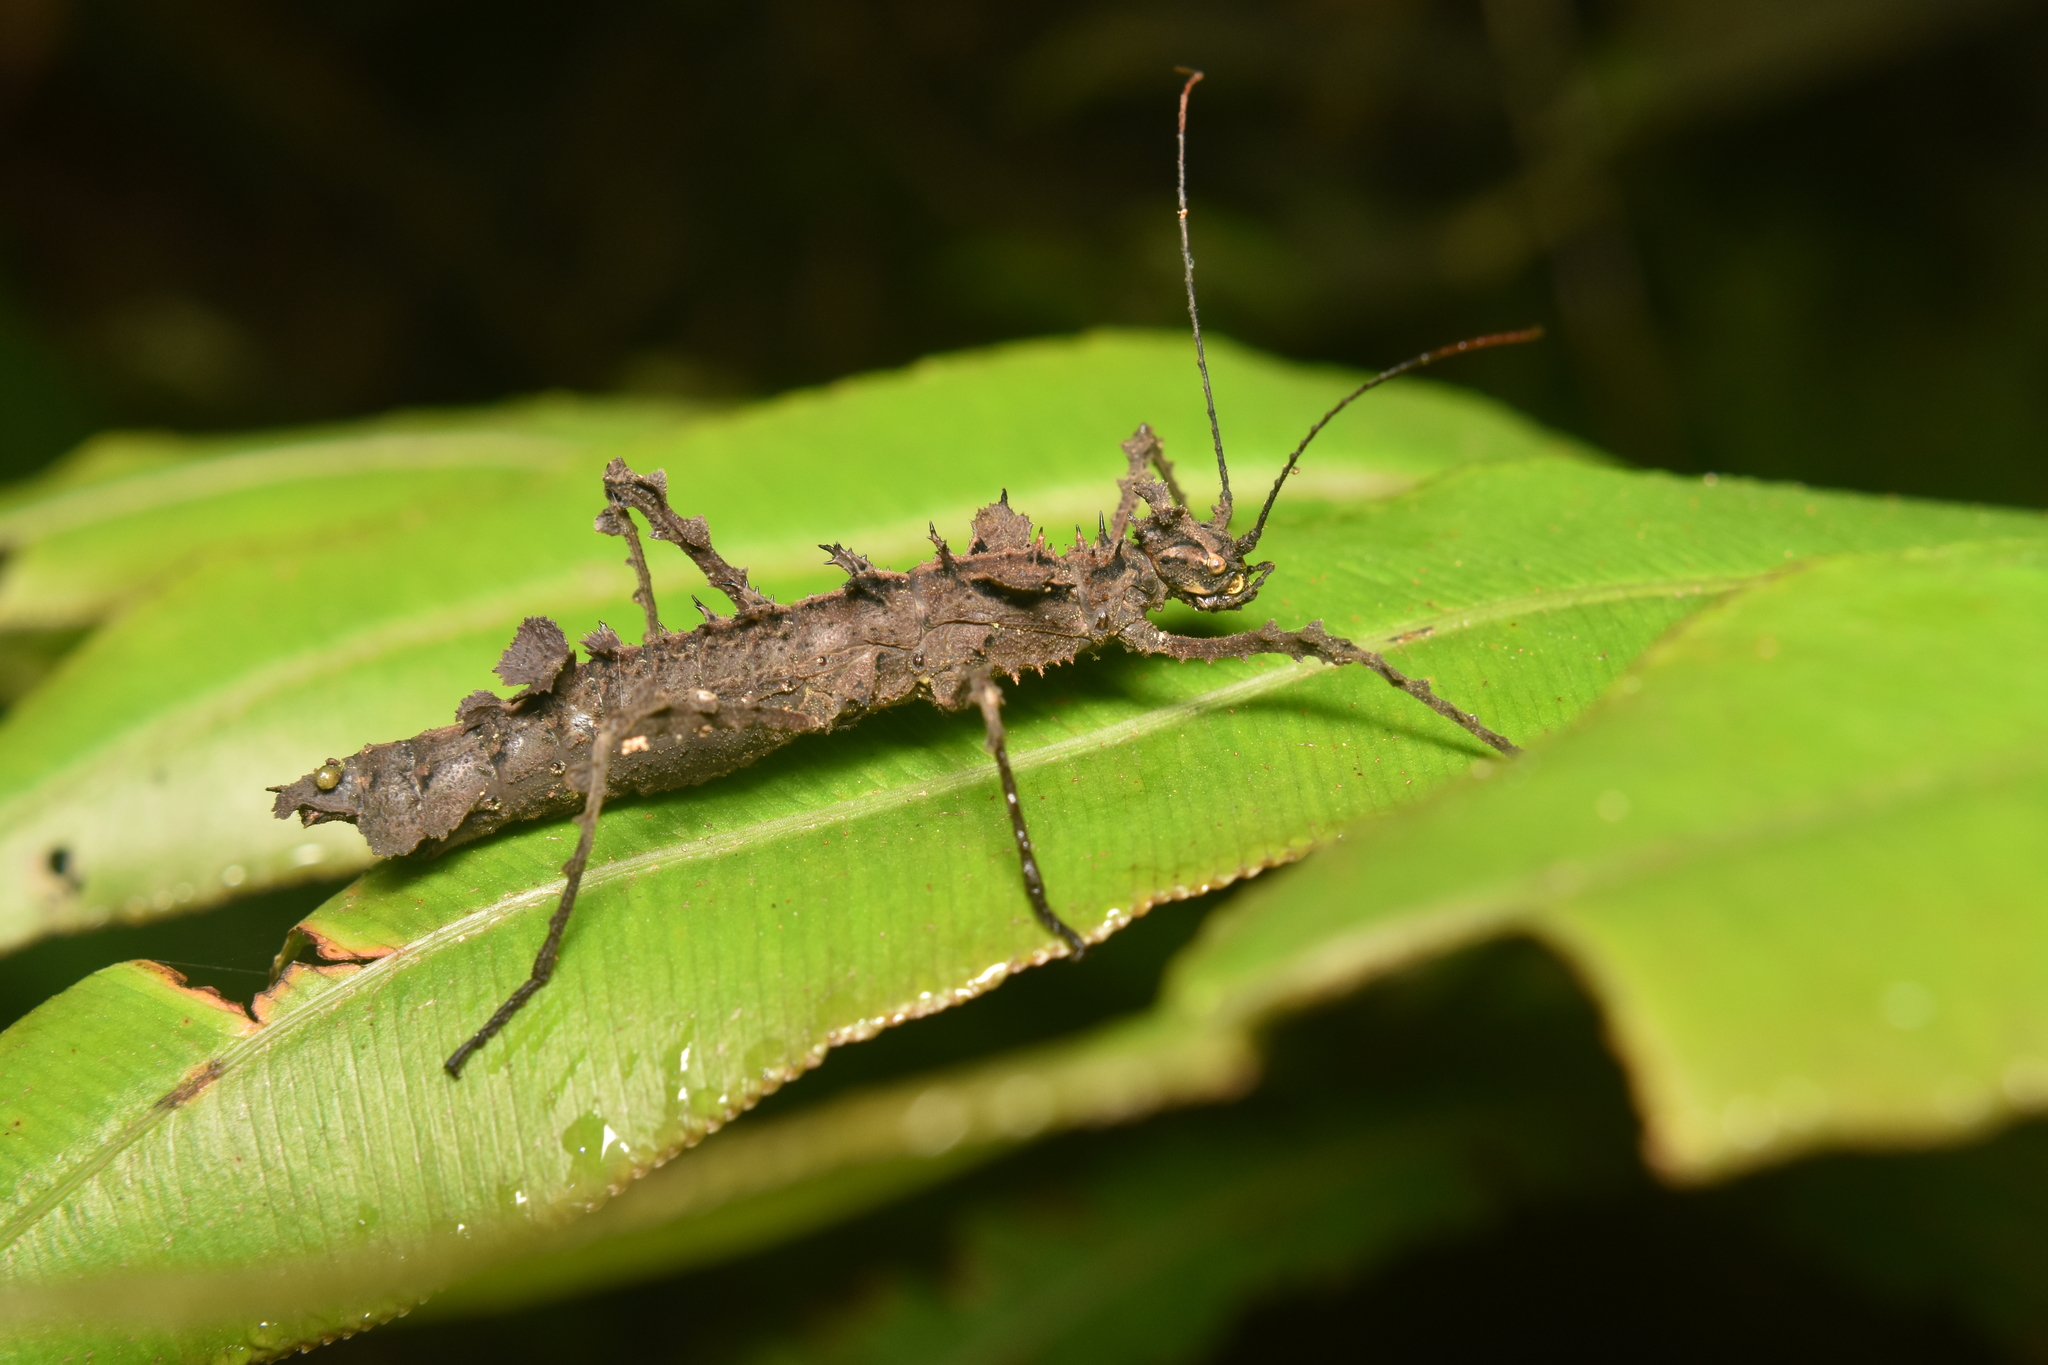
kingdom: Animalia
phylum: Arthropoda
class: Insecta
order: Phasmida
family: Pseudophasmatidae
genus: Acanthoclonia
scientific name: Acanthoclonia ornatum
